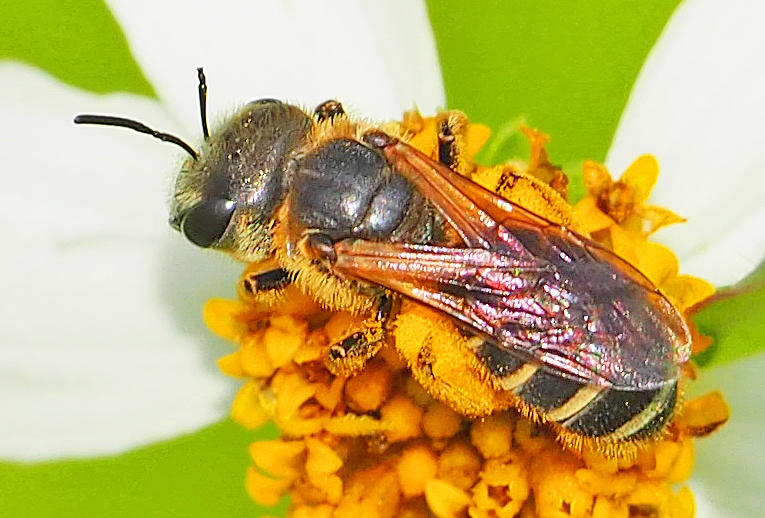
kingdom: Animalia
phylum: Arthropoda
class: Insecta
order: Hymenoptera
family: Halictidae
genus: Halictus
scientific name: Halictus poeyi
